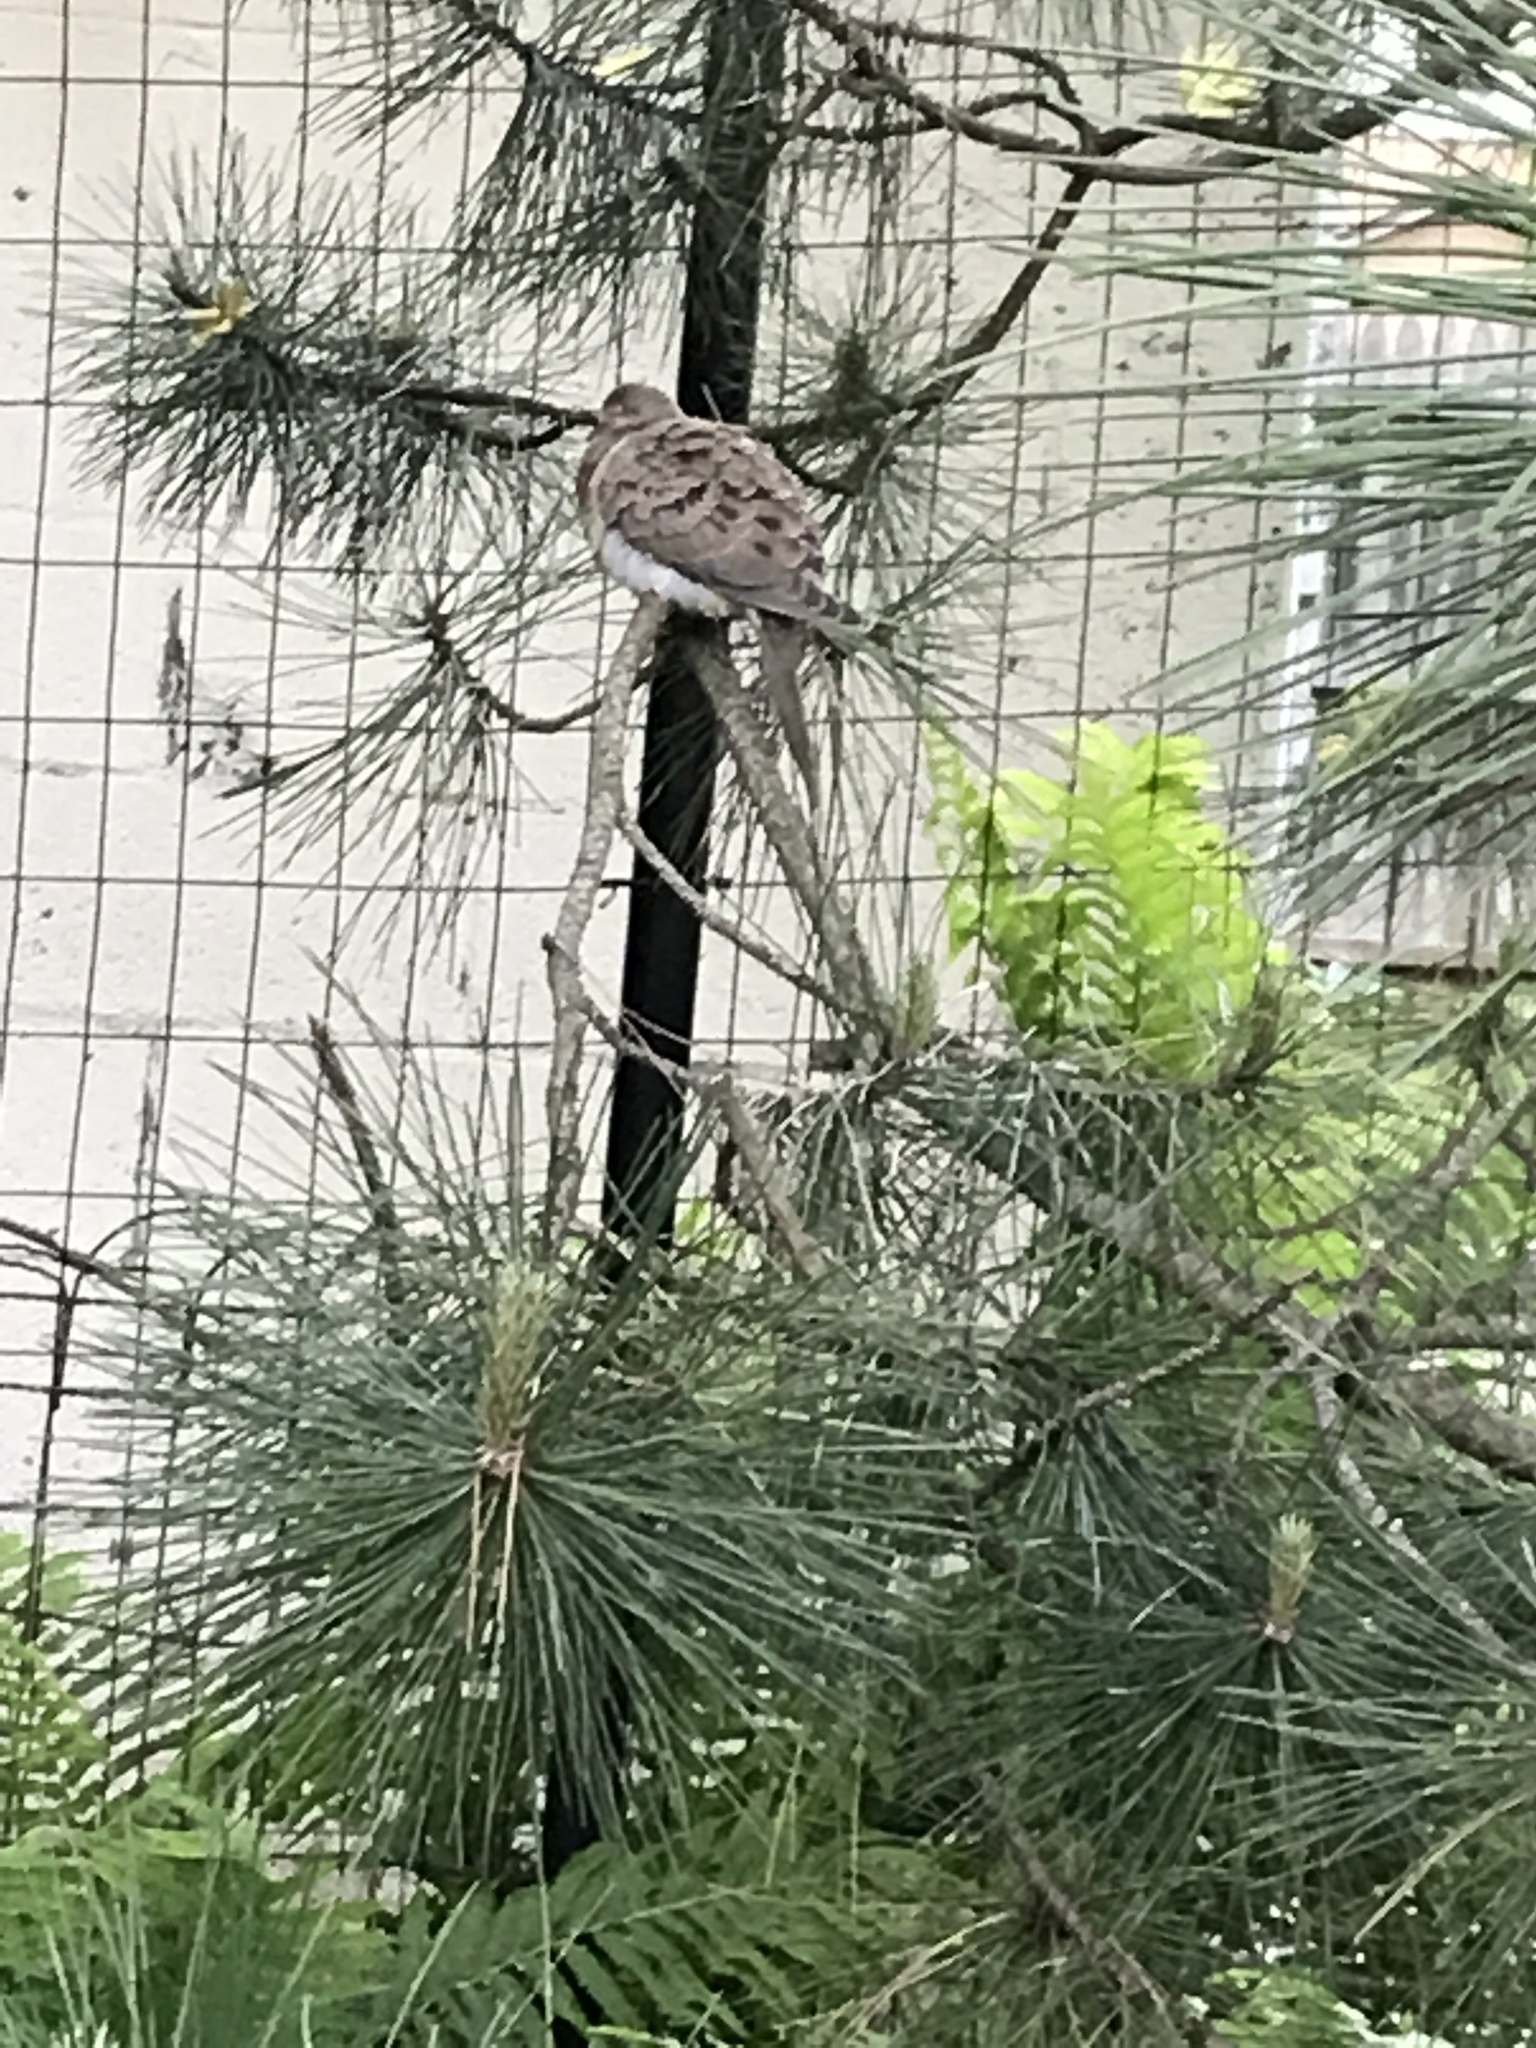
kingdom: Animalia
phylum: Chordata
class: Aves
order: Columbiformes
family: Columbidae
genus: Zenaida
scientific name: Zenaida macroura
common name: Mourning dove
